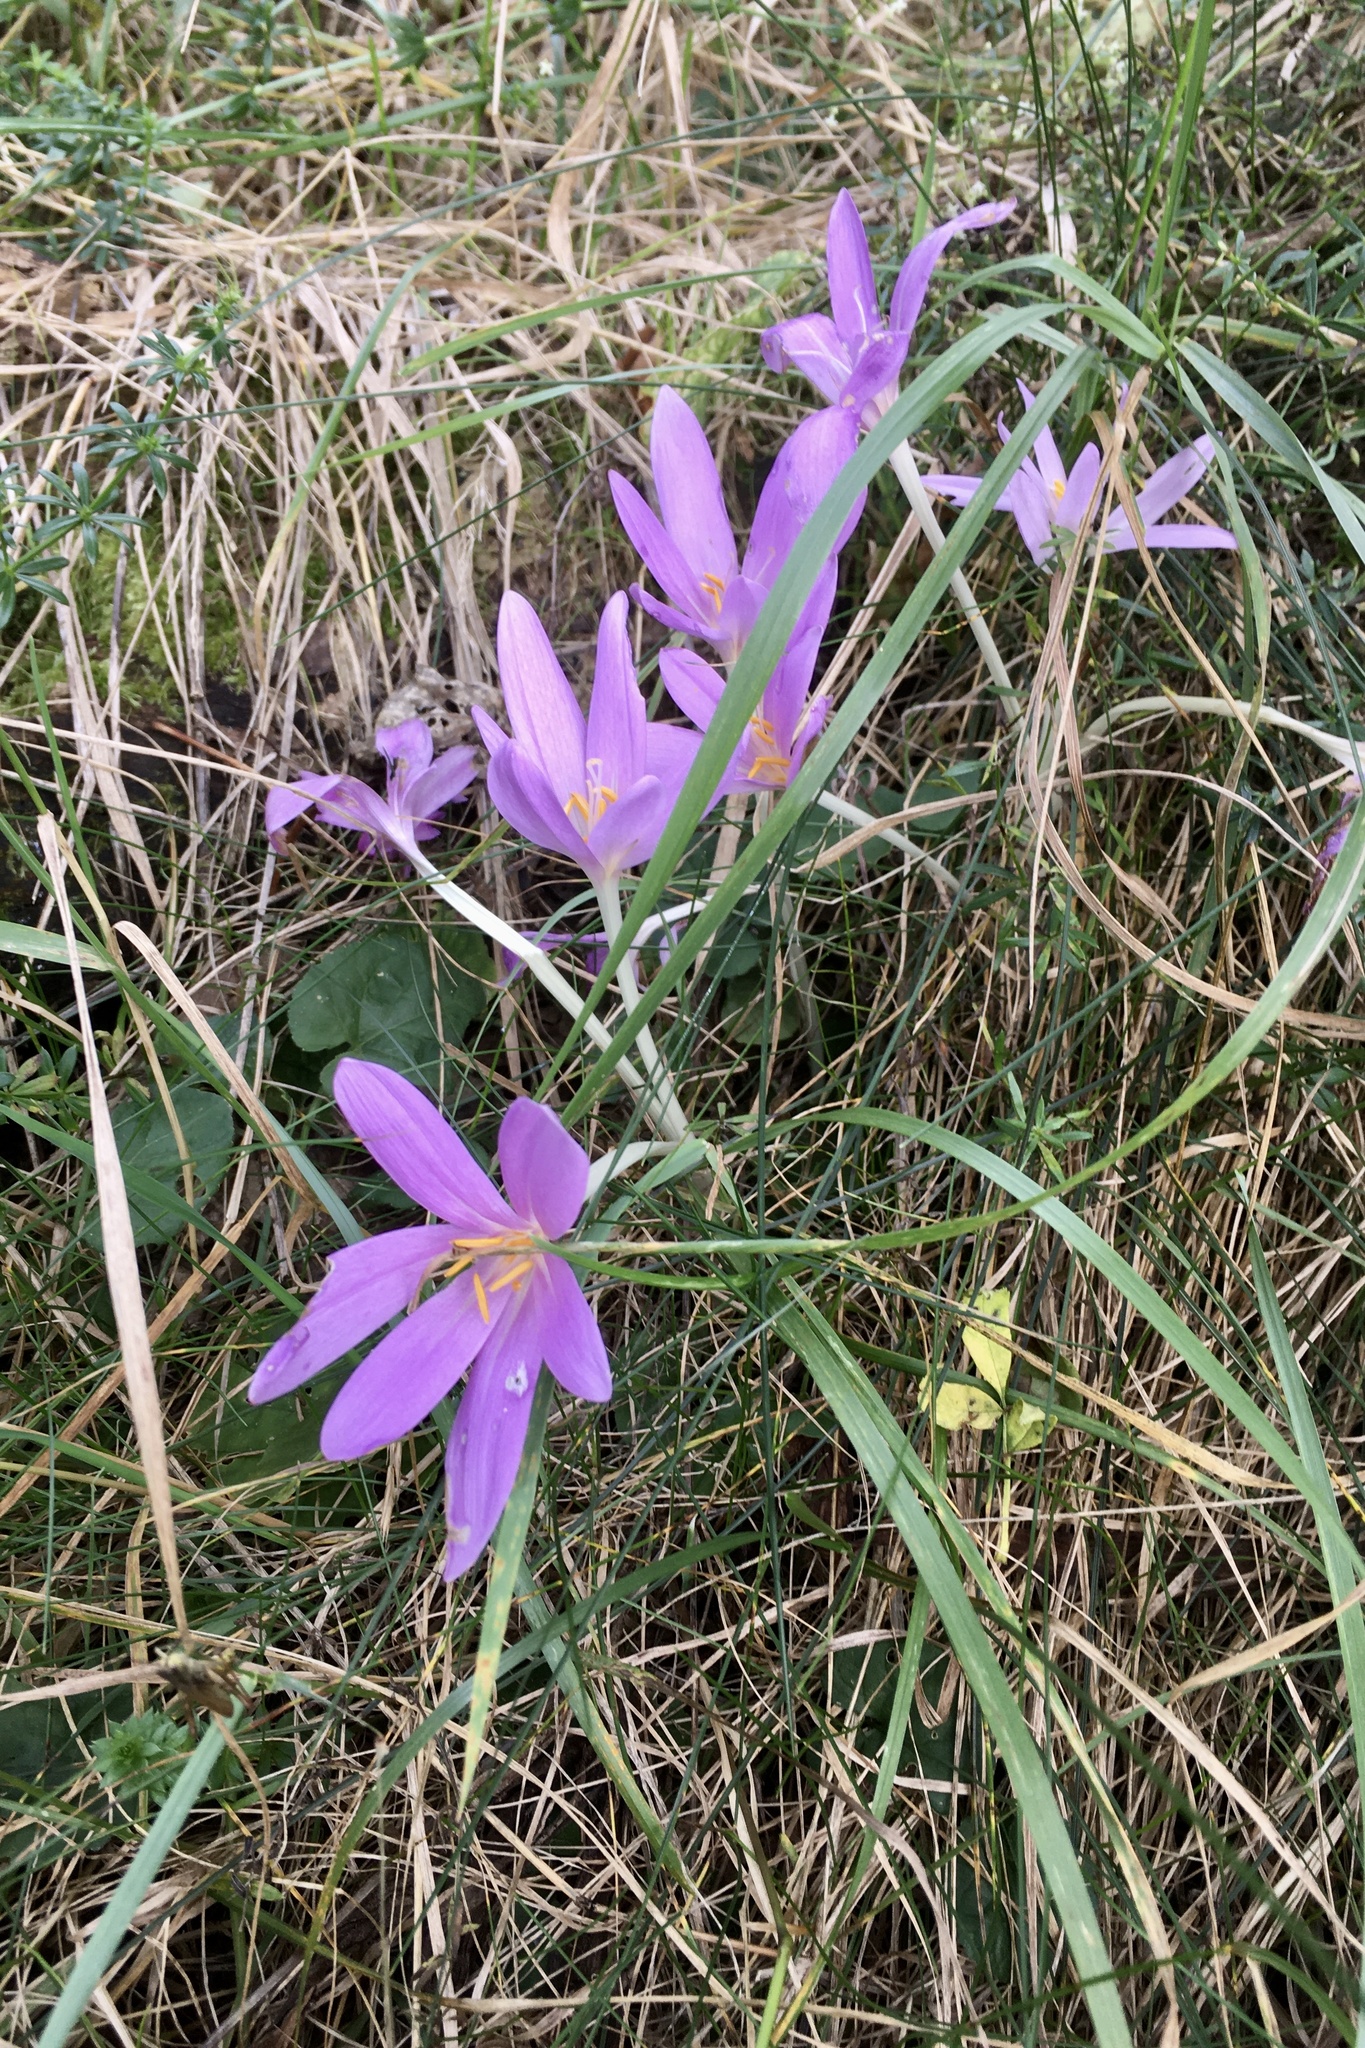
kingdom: Plantae
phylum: Tracheophyta
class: Liliopsida
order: Liliales
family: Colchicaceae
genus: Colchicum
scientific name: Colchicum autumnale
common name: Autumn crocus
